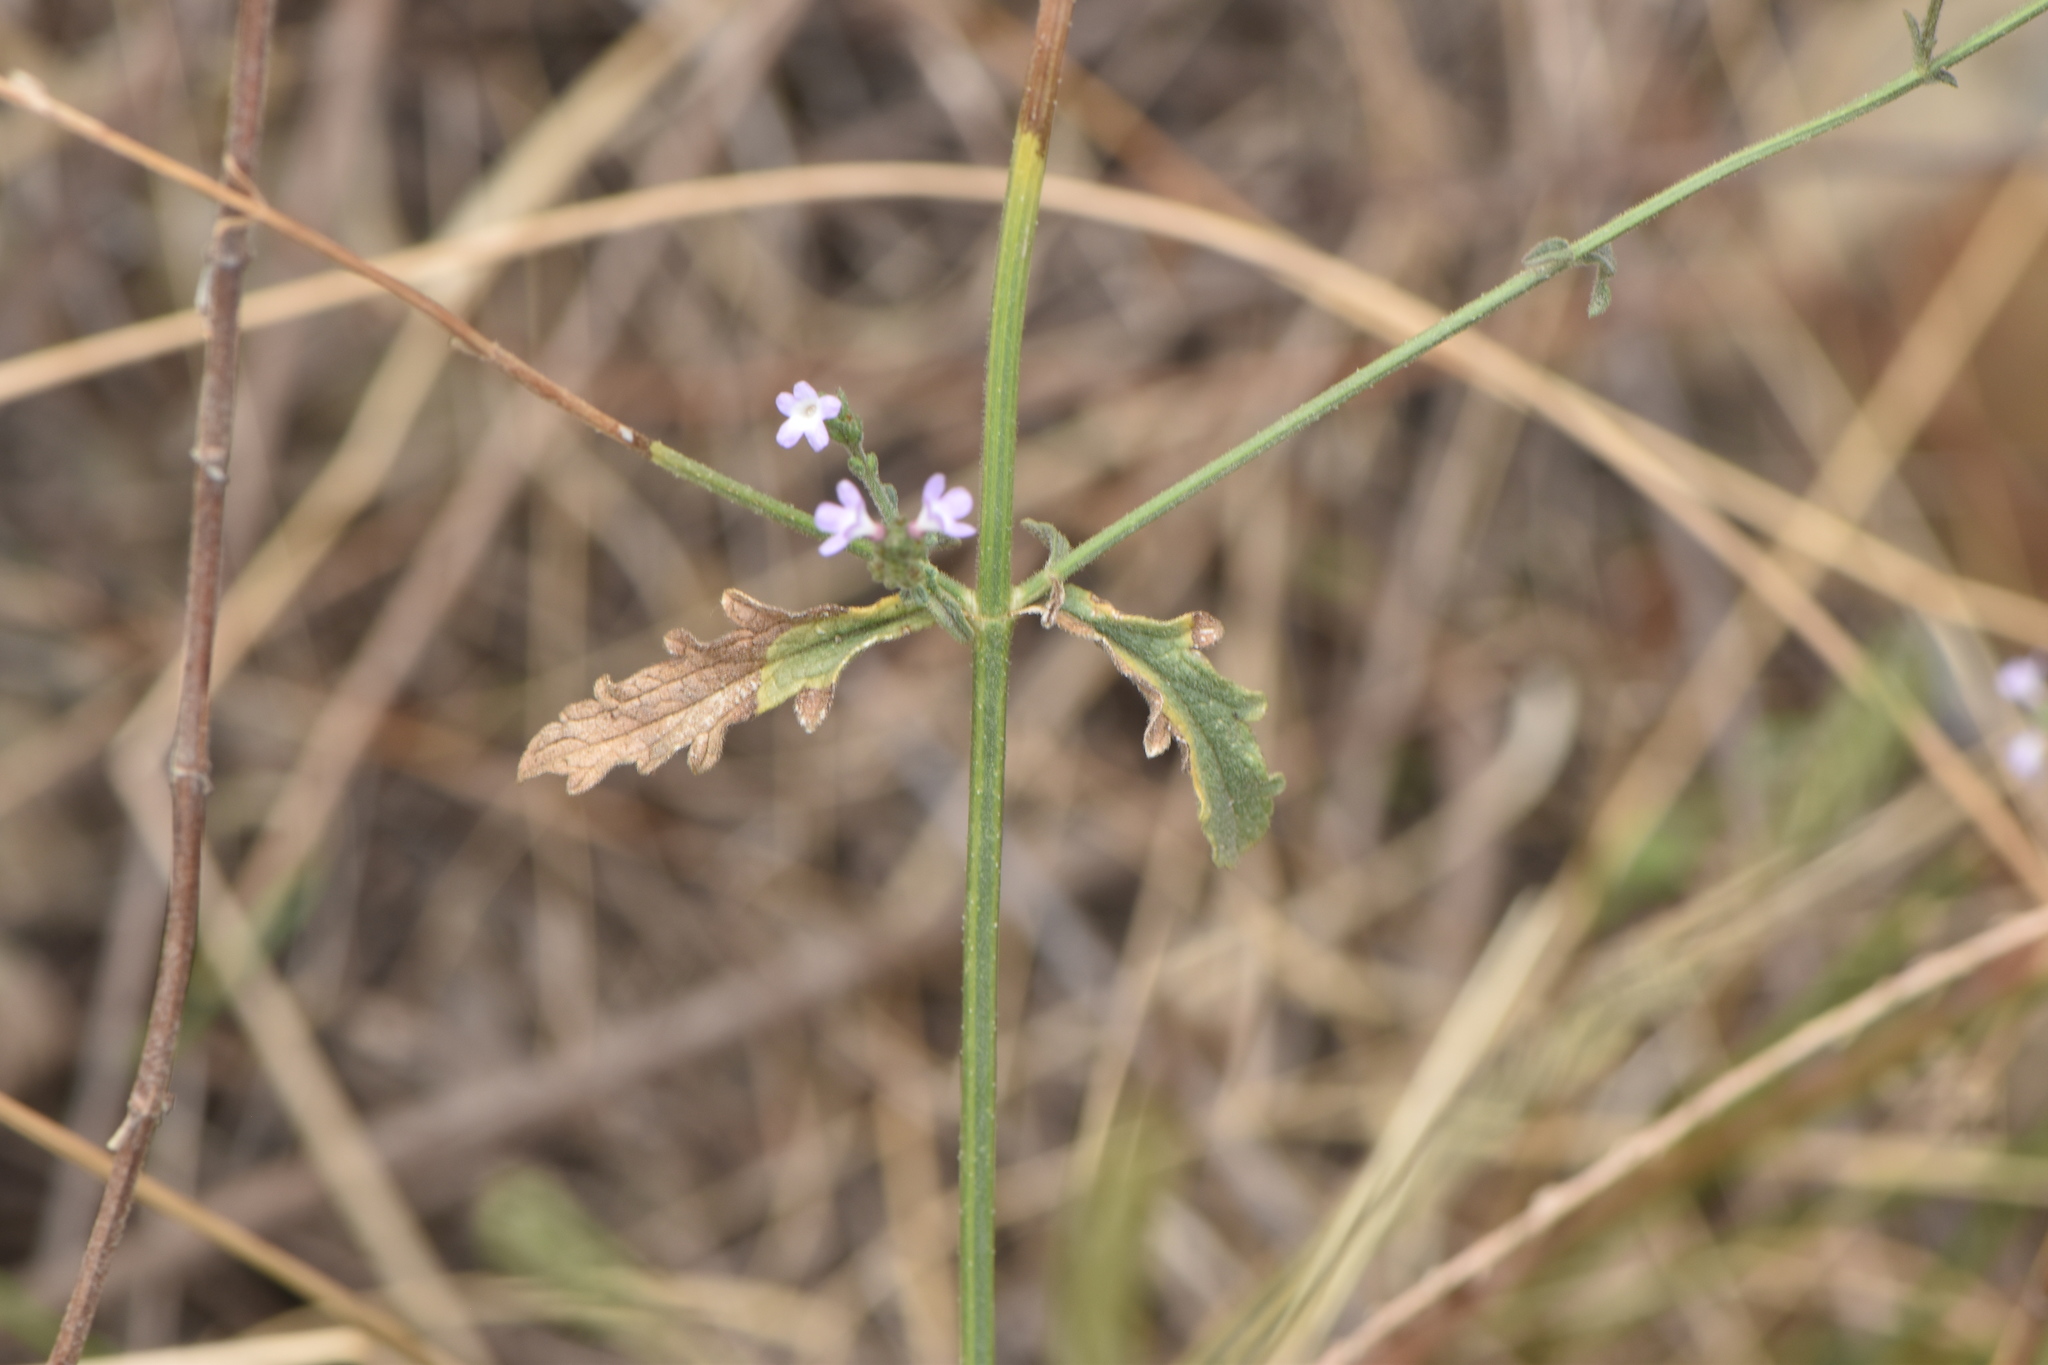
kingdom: Plantae
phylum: Tracheophyta
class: Magnoliopsida
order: Lamiales
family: Verbenaceae
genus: Verbena
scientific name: Verbena officinalis
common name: Vervain
